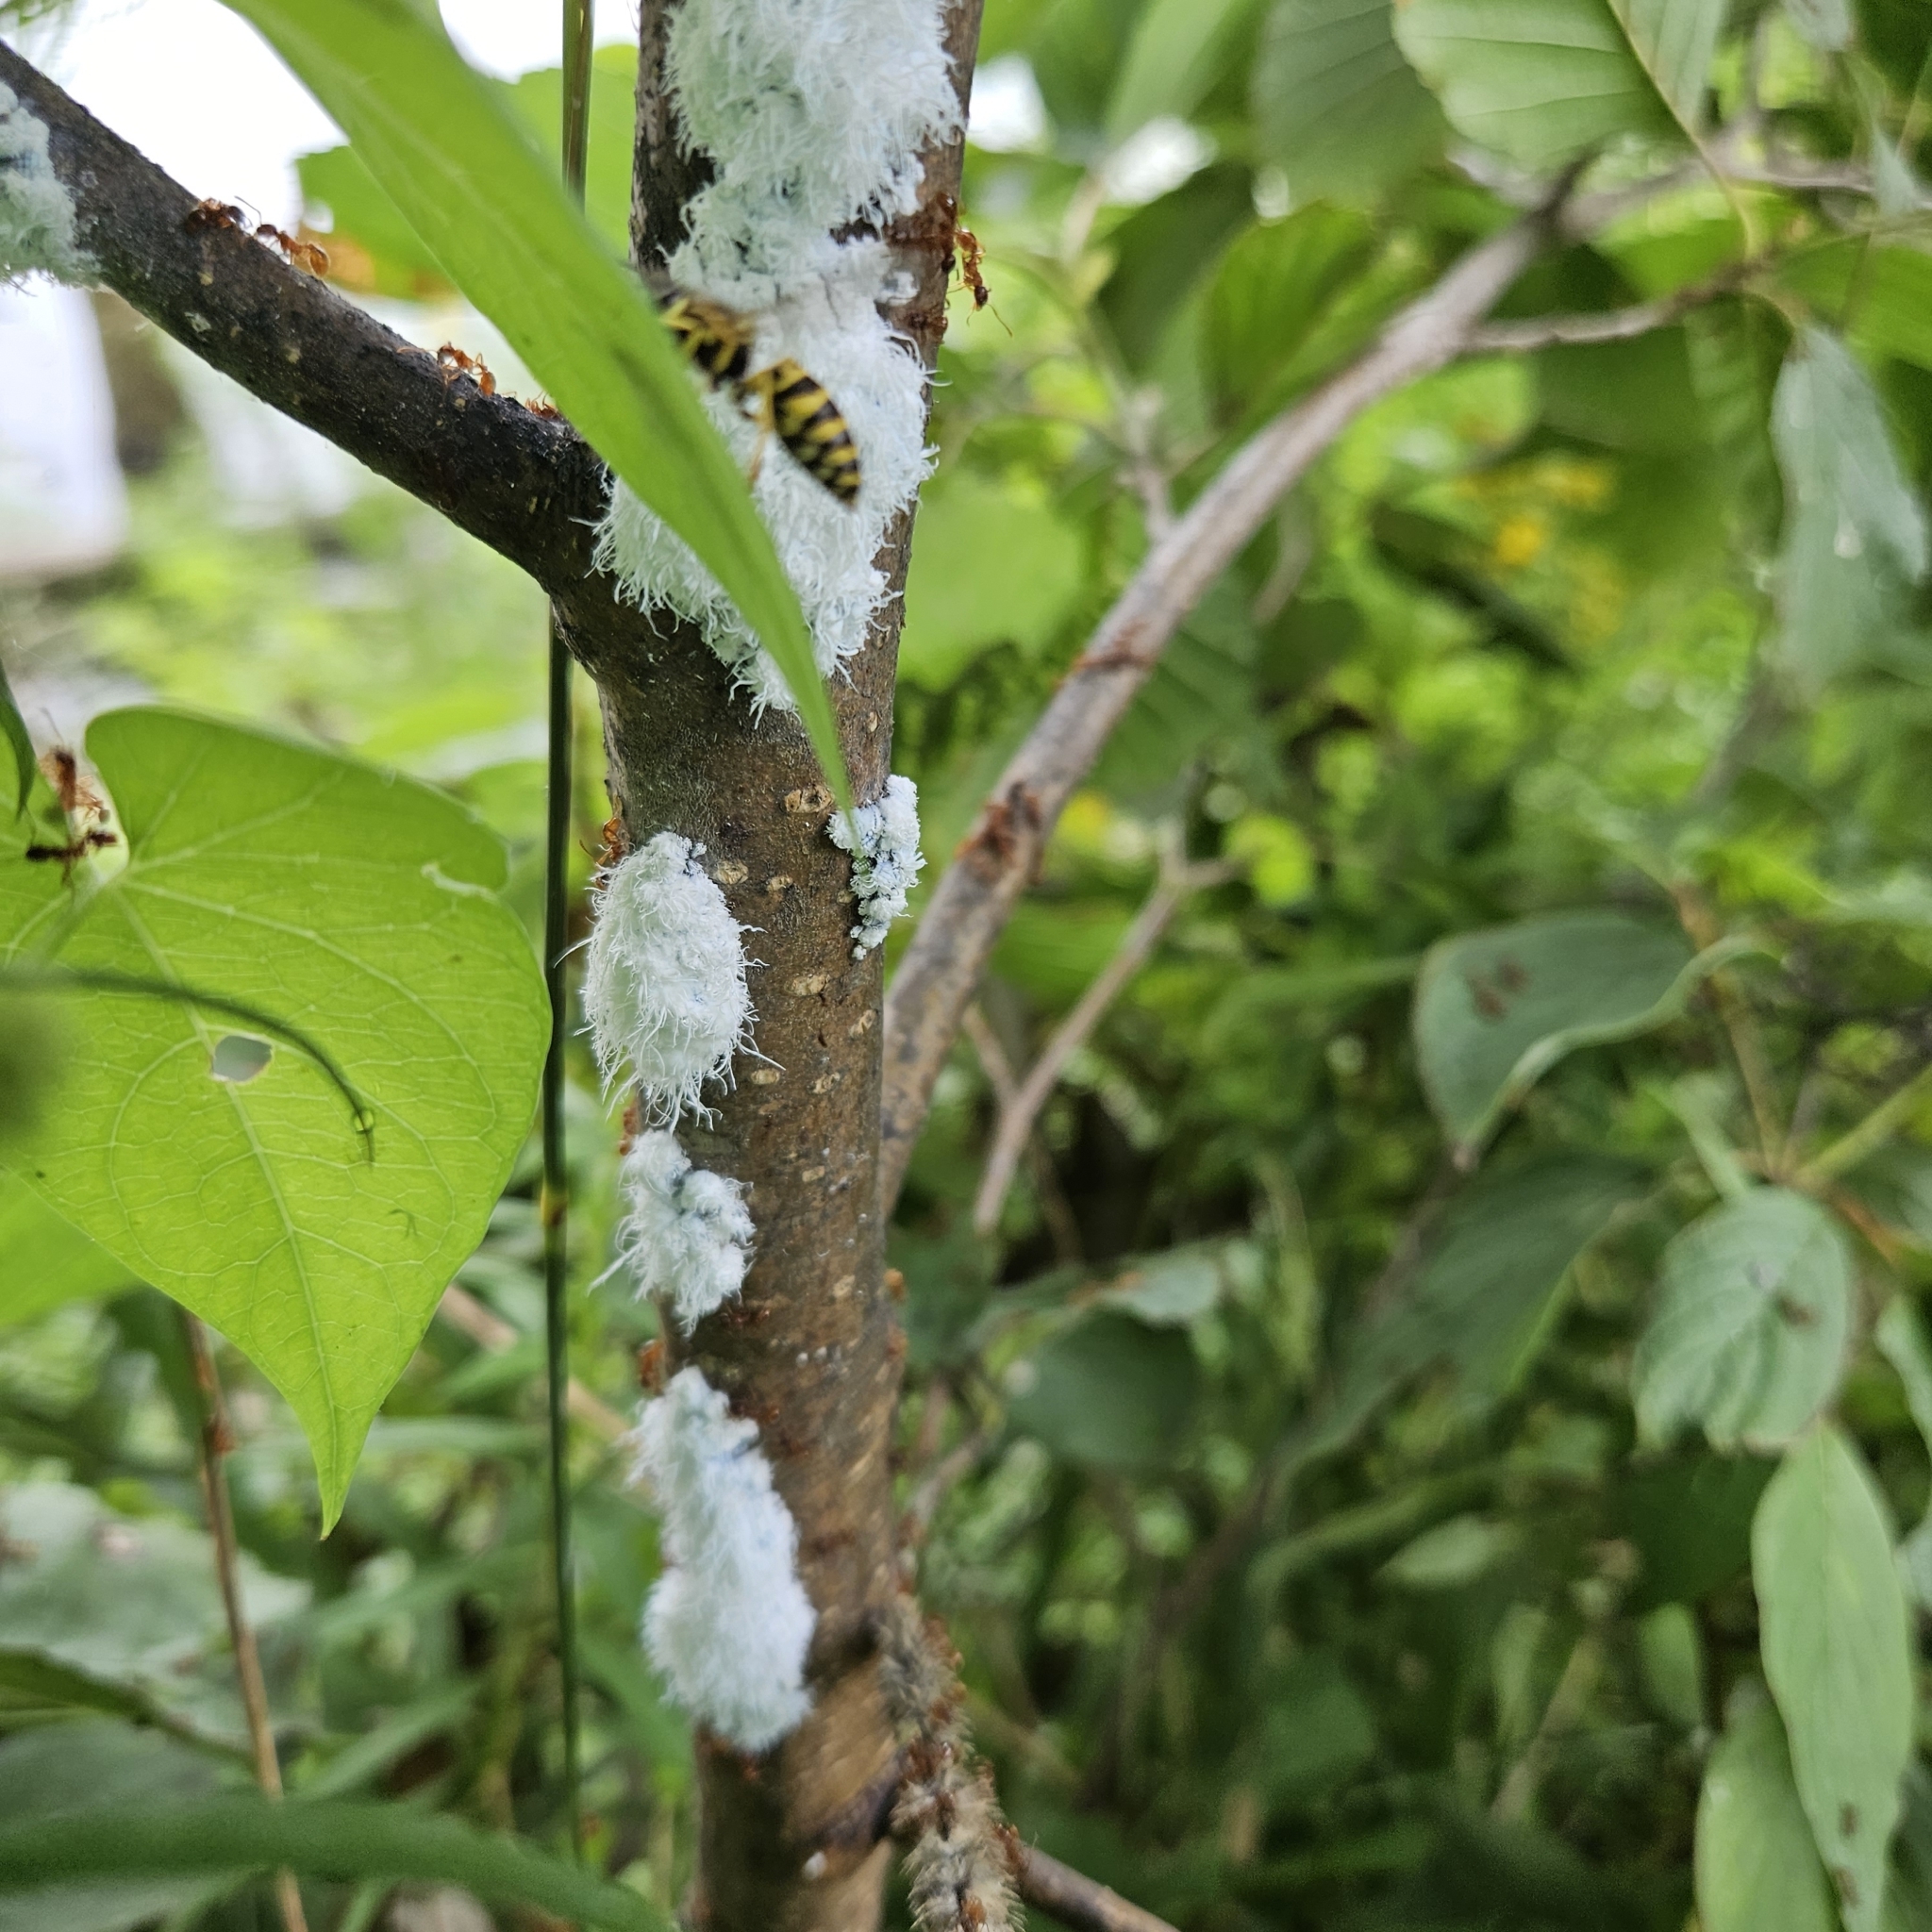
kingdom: Animalia
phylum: Arthropoda
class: Insecta
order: Hemiptera
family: Aphididae
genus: Prociphilus
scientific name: Prociphilus tessellatus
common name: Woolly alder aphid
